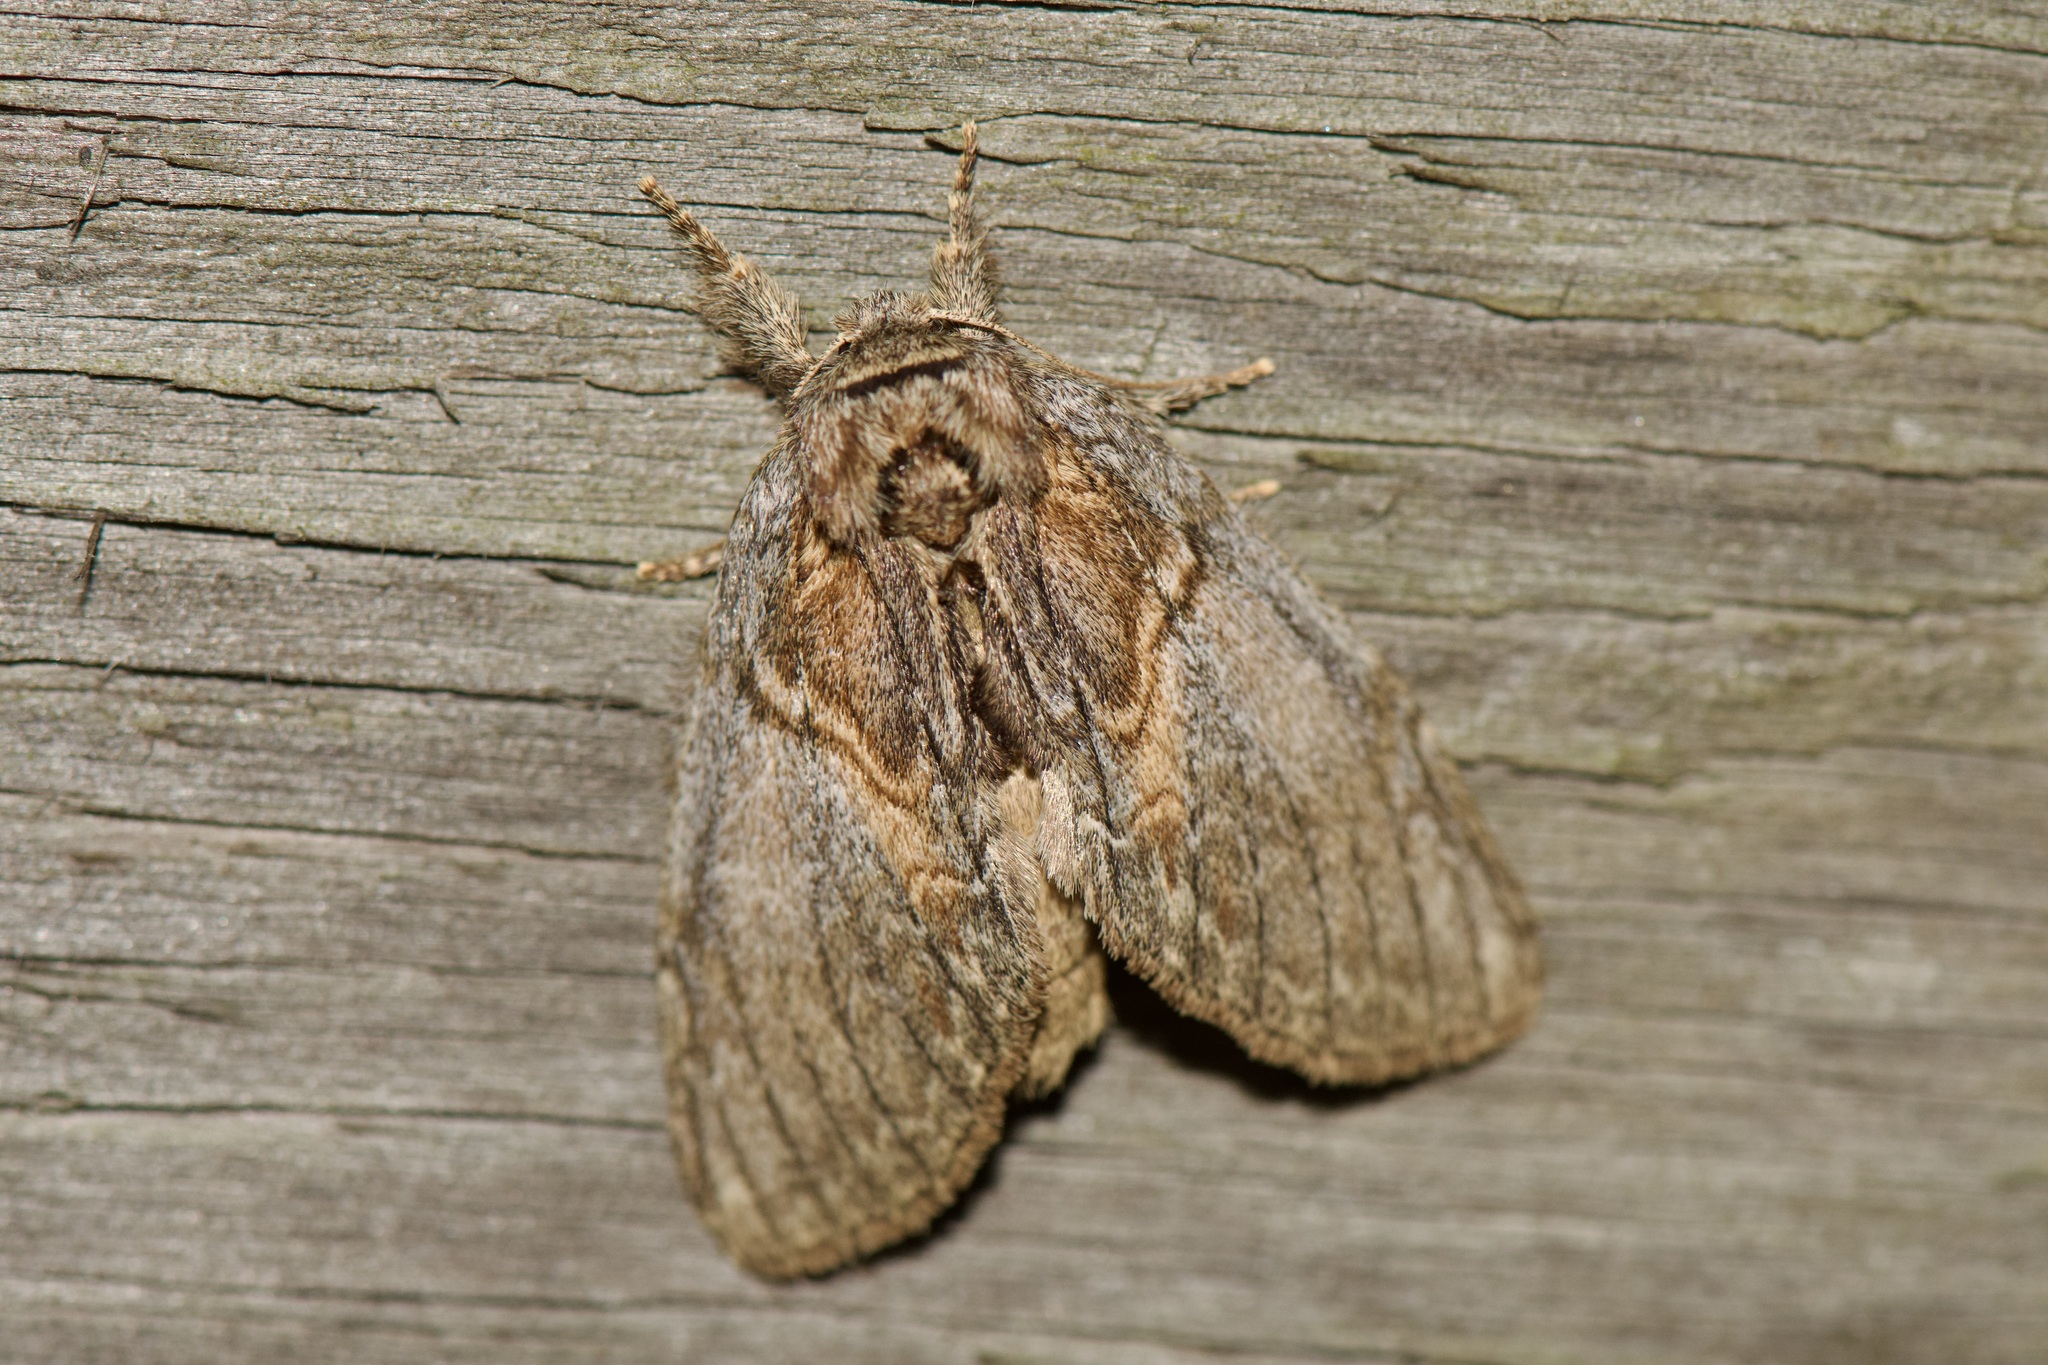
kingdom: Animalia
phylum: Arthropoda
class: Insecta
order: Lepidoptera
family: Notodontidae
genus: Peridea
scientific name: Peridea basitriens
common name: Oval-based prominent
